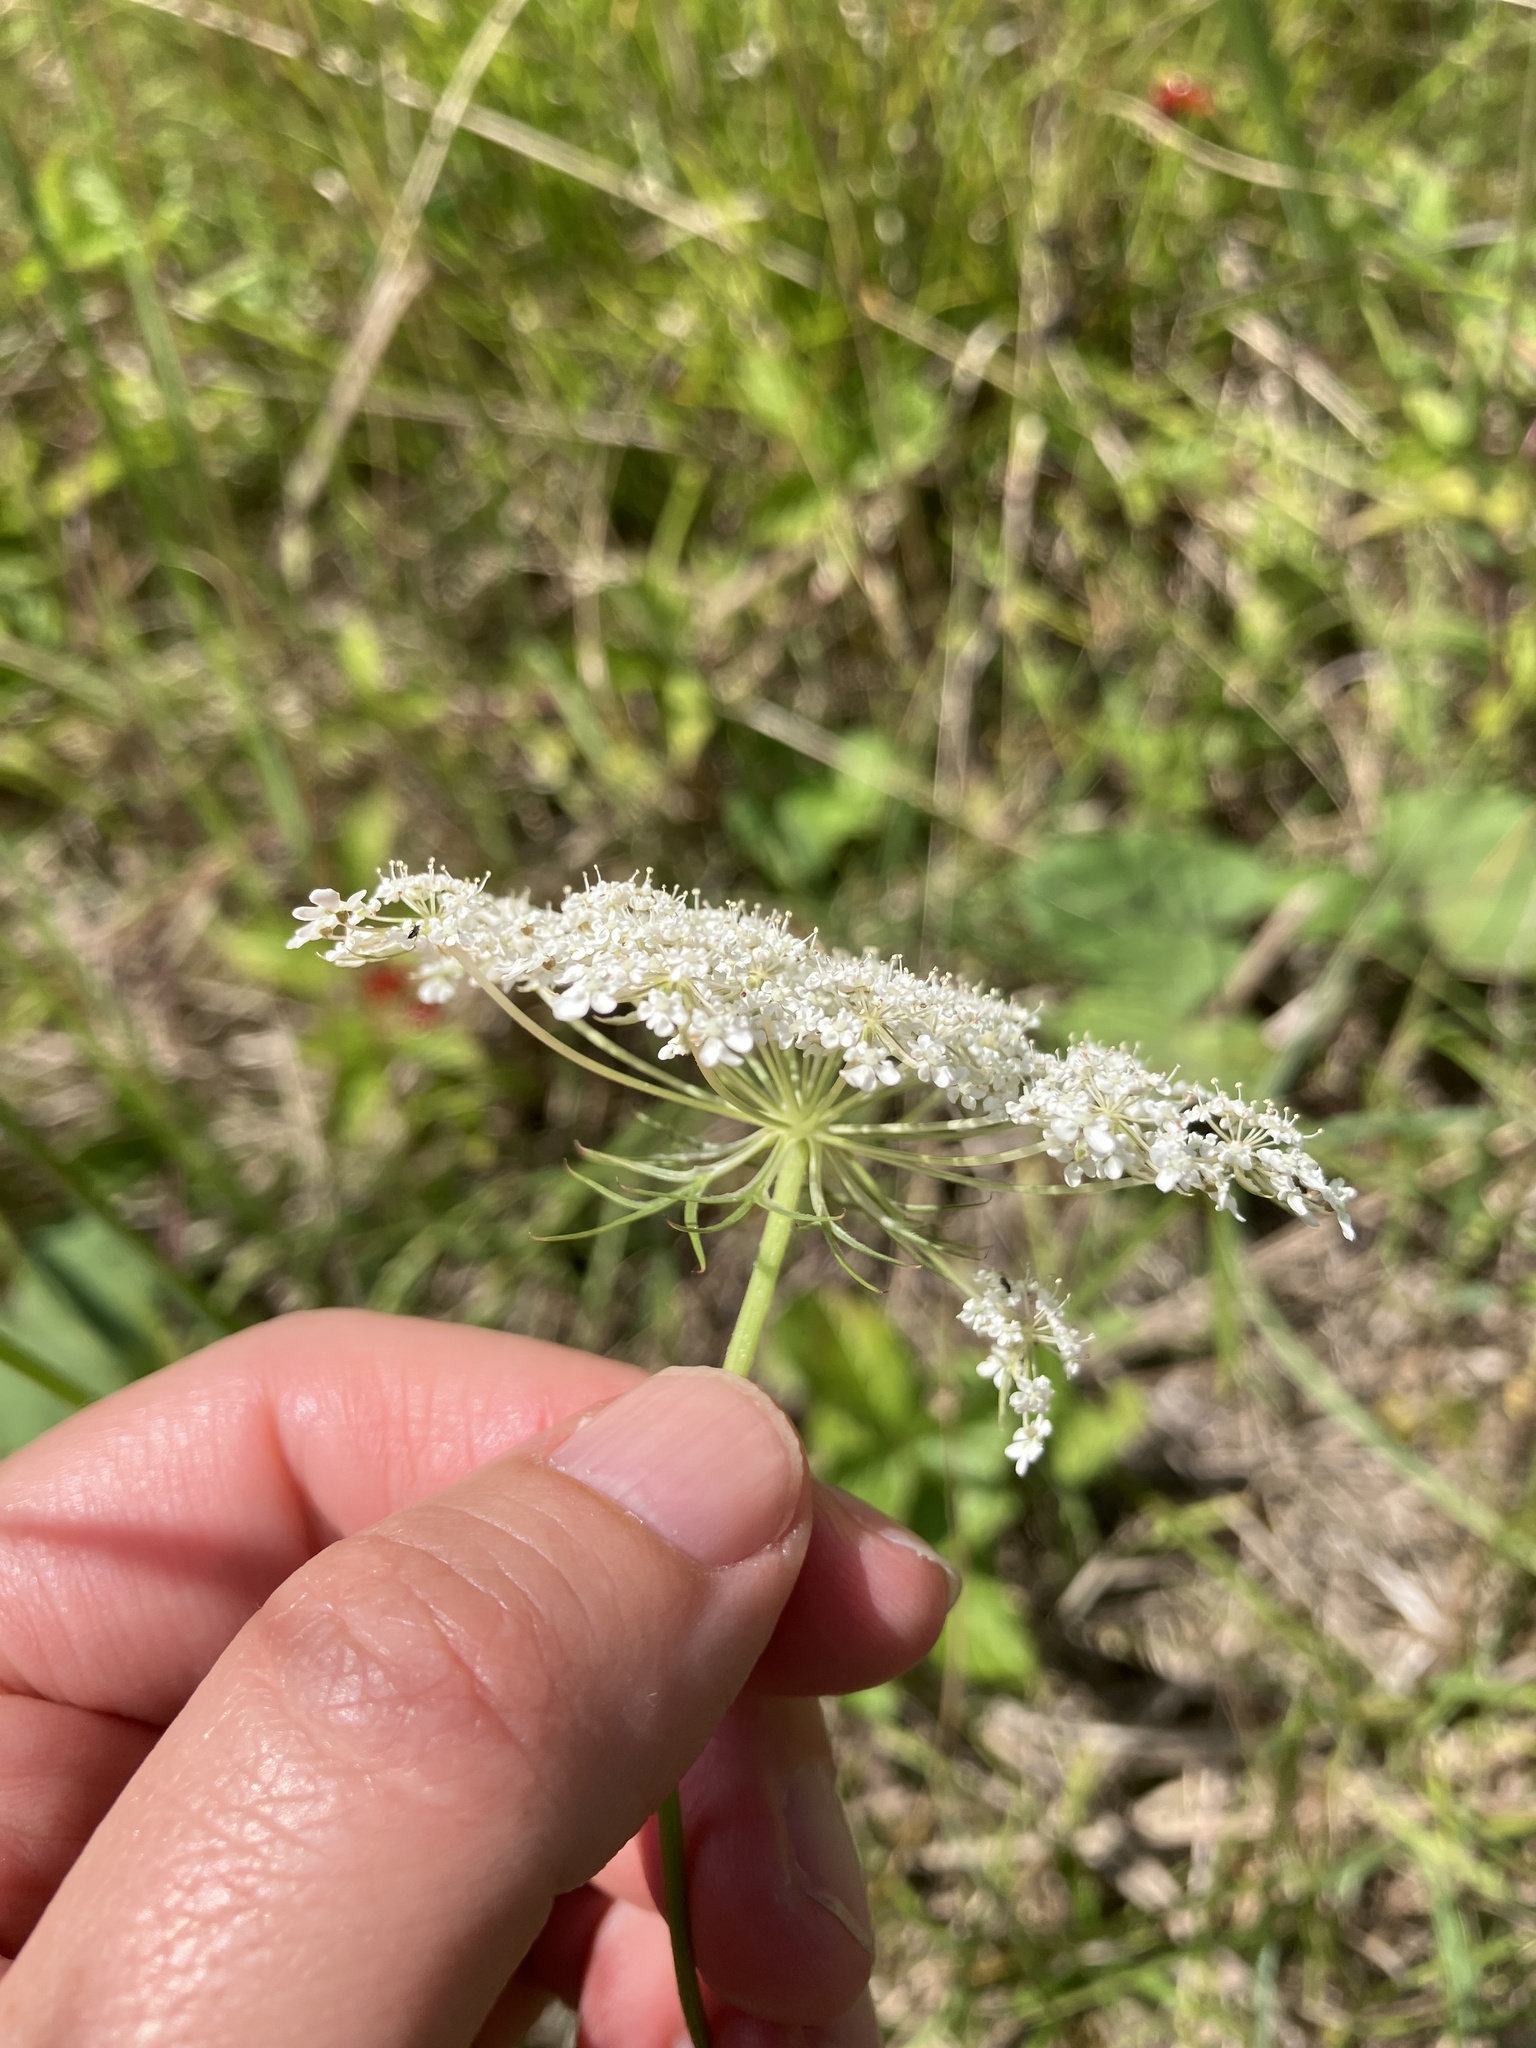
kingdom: Plantae
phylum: Tracheophyta
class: Magnoliopsida
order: Apiales
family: Apiaceae
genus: Daucus
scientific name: Daucus carota
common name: Wild carrot
